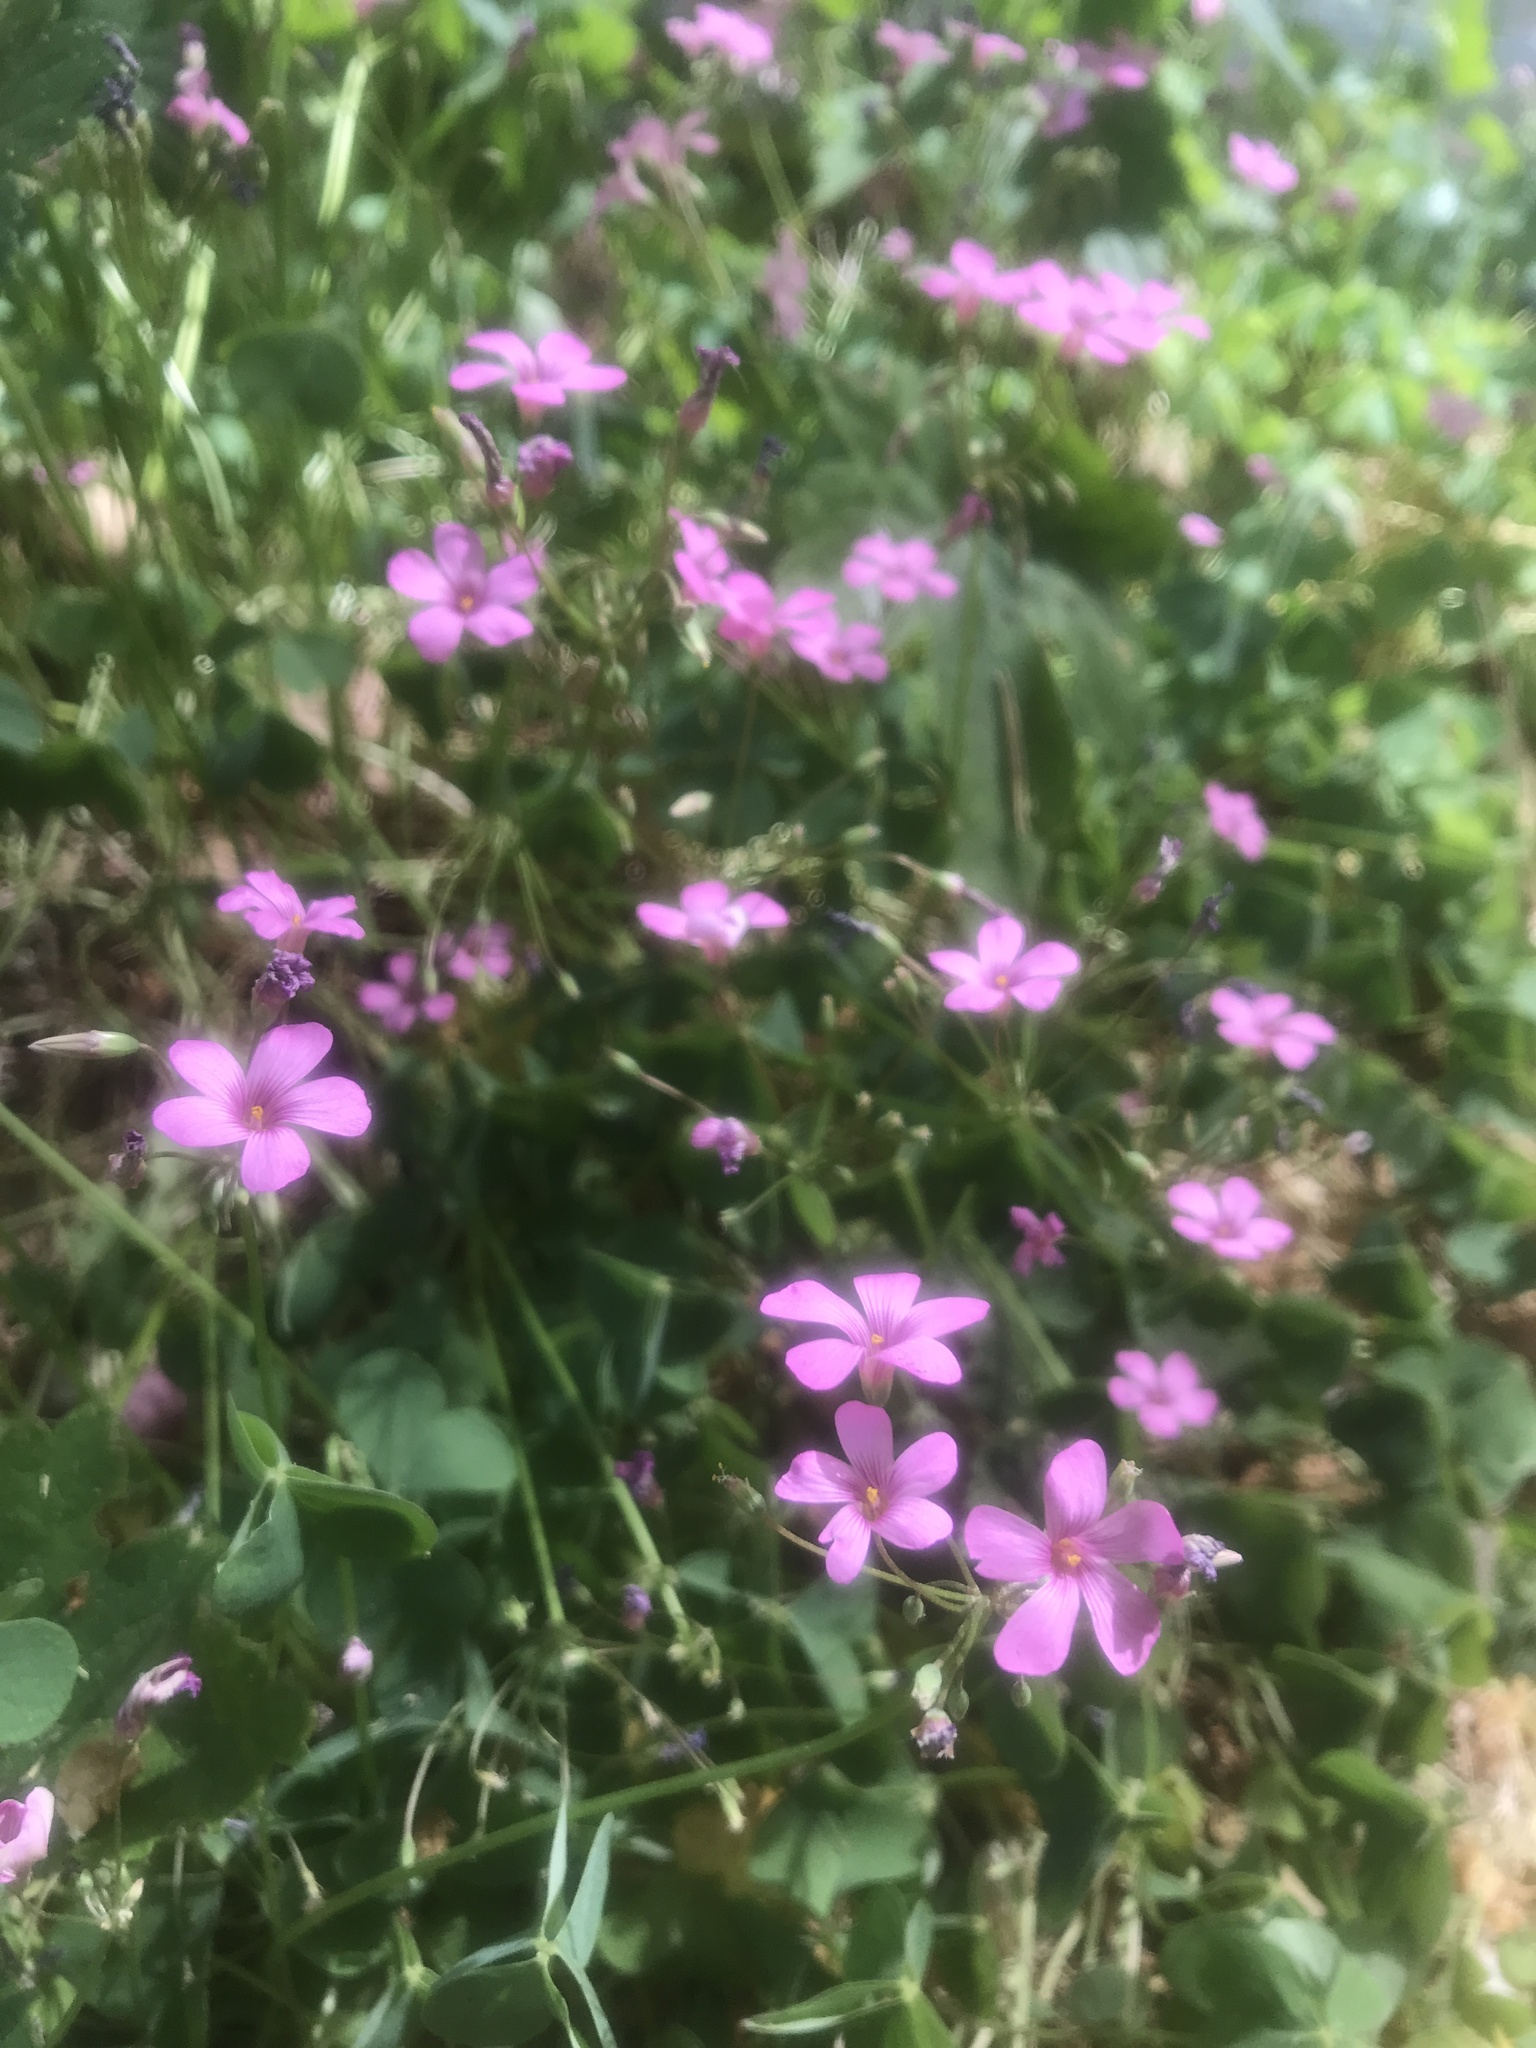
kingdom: Plantae
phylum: Tracheophyta
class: Magnoliopsida
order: Oxalidales
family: Oxalidaceae
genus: Oxalis
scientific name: Oxalis articulata
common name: Pink-sorrel
